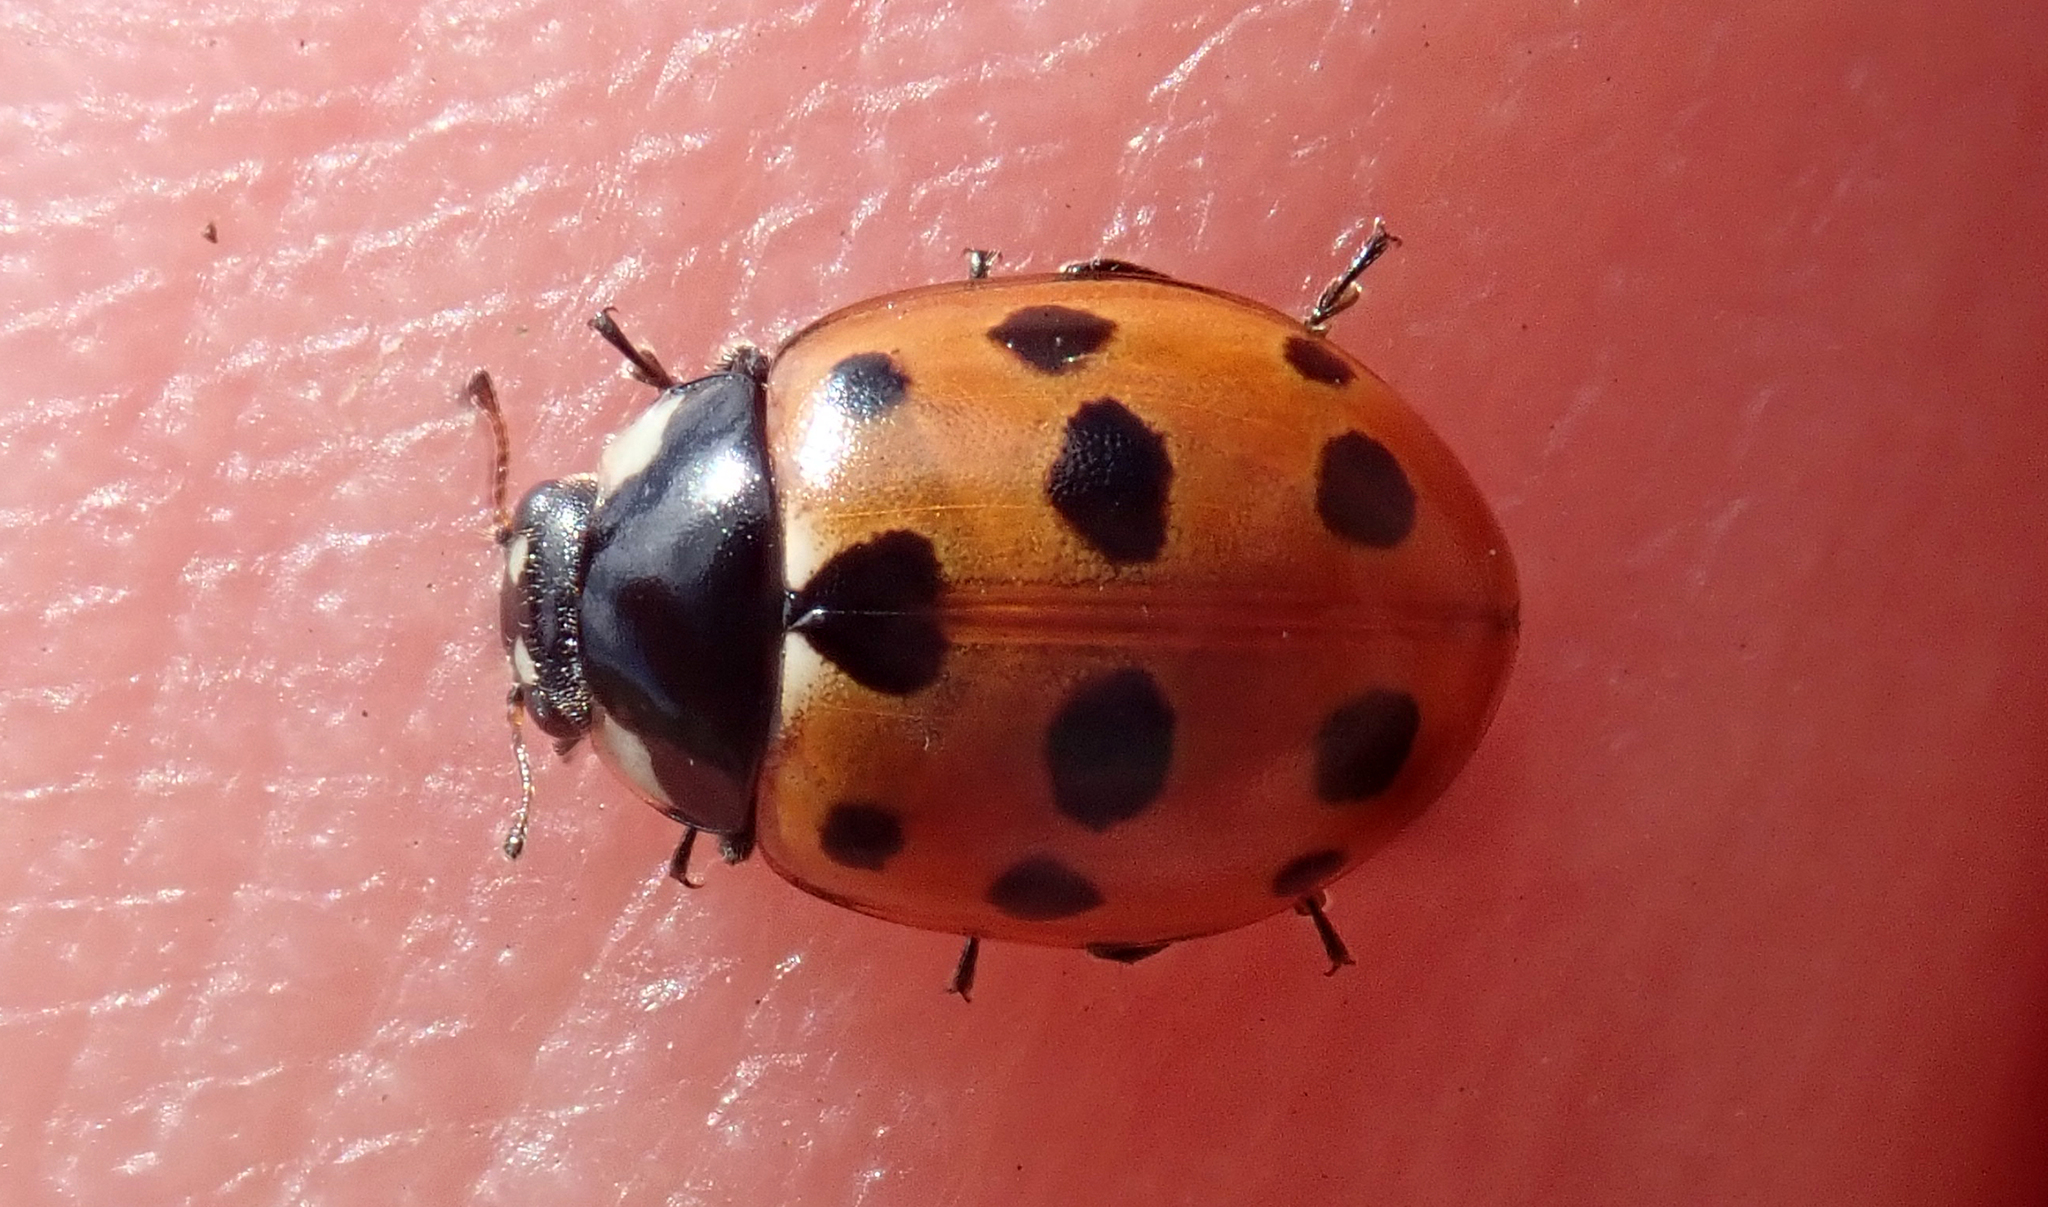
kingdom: Animalia
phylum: Arthropoda
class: Insecta
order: Coleoptera
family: Coccinellidae
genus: Coccinella
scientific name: Coccinella undecimpunctata
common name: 11-spot ladybird
